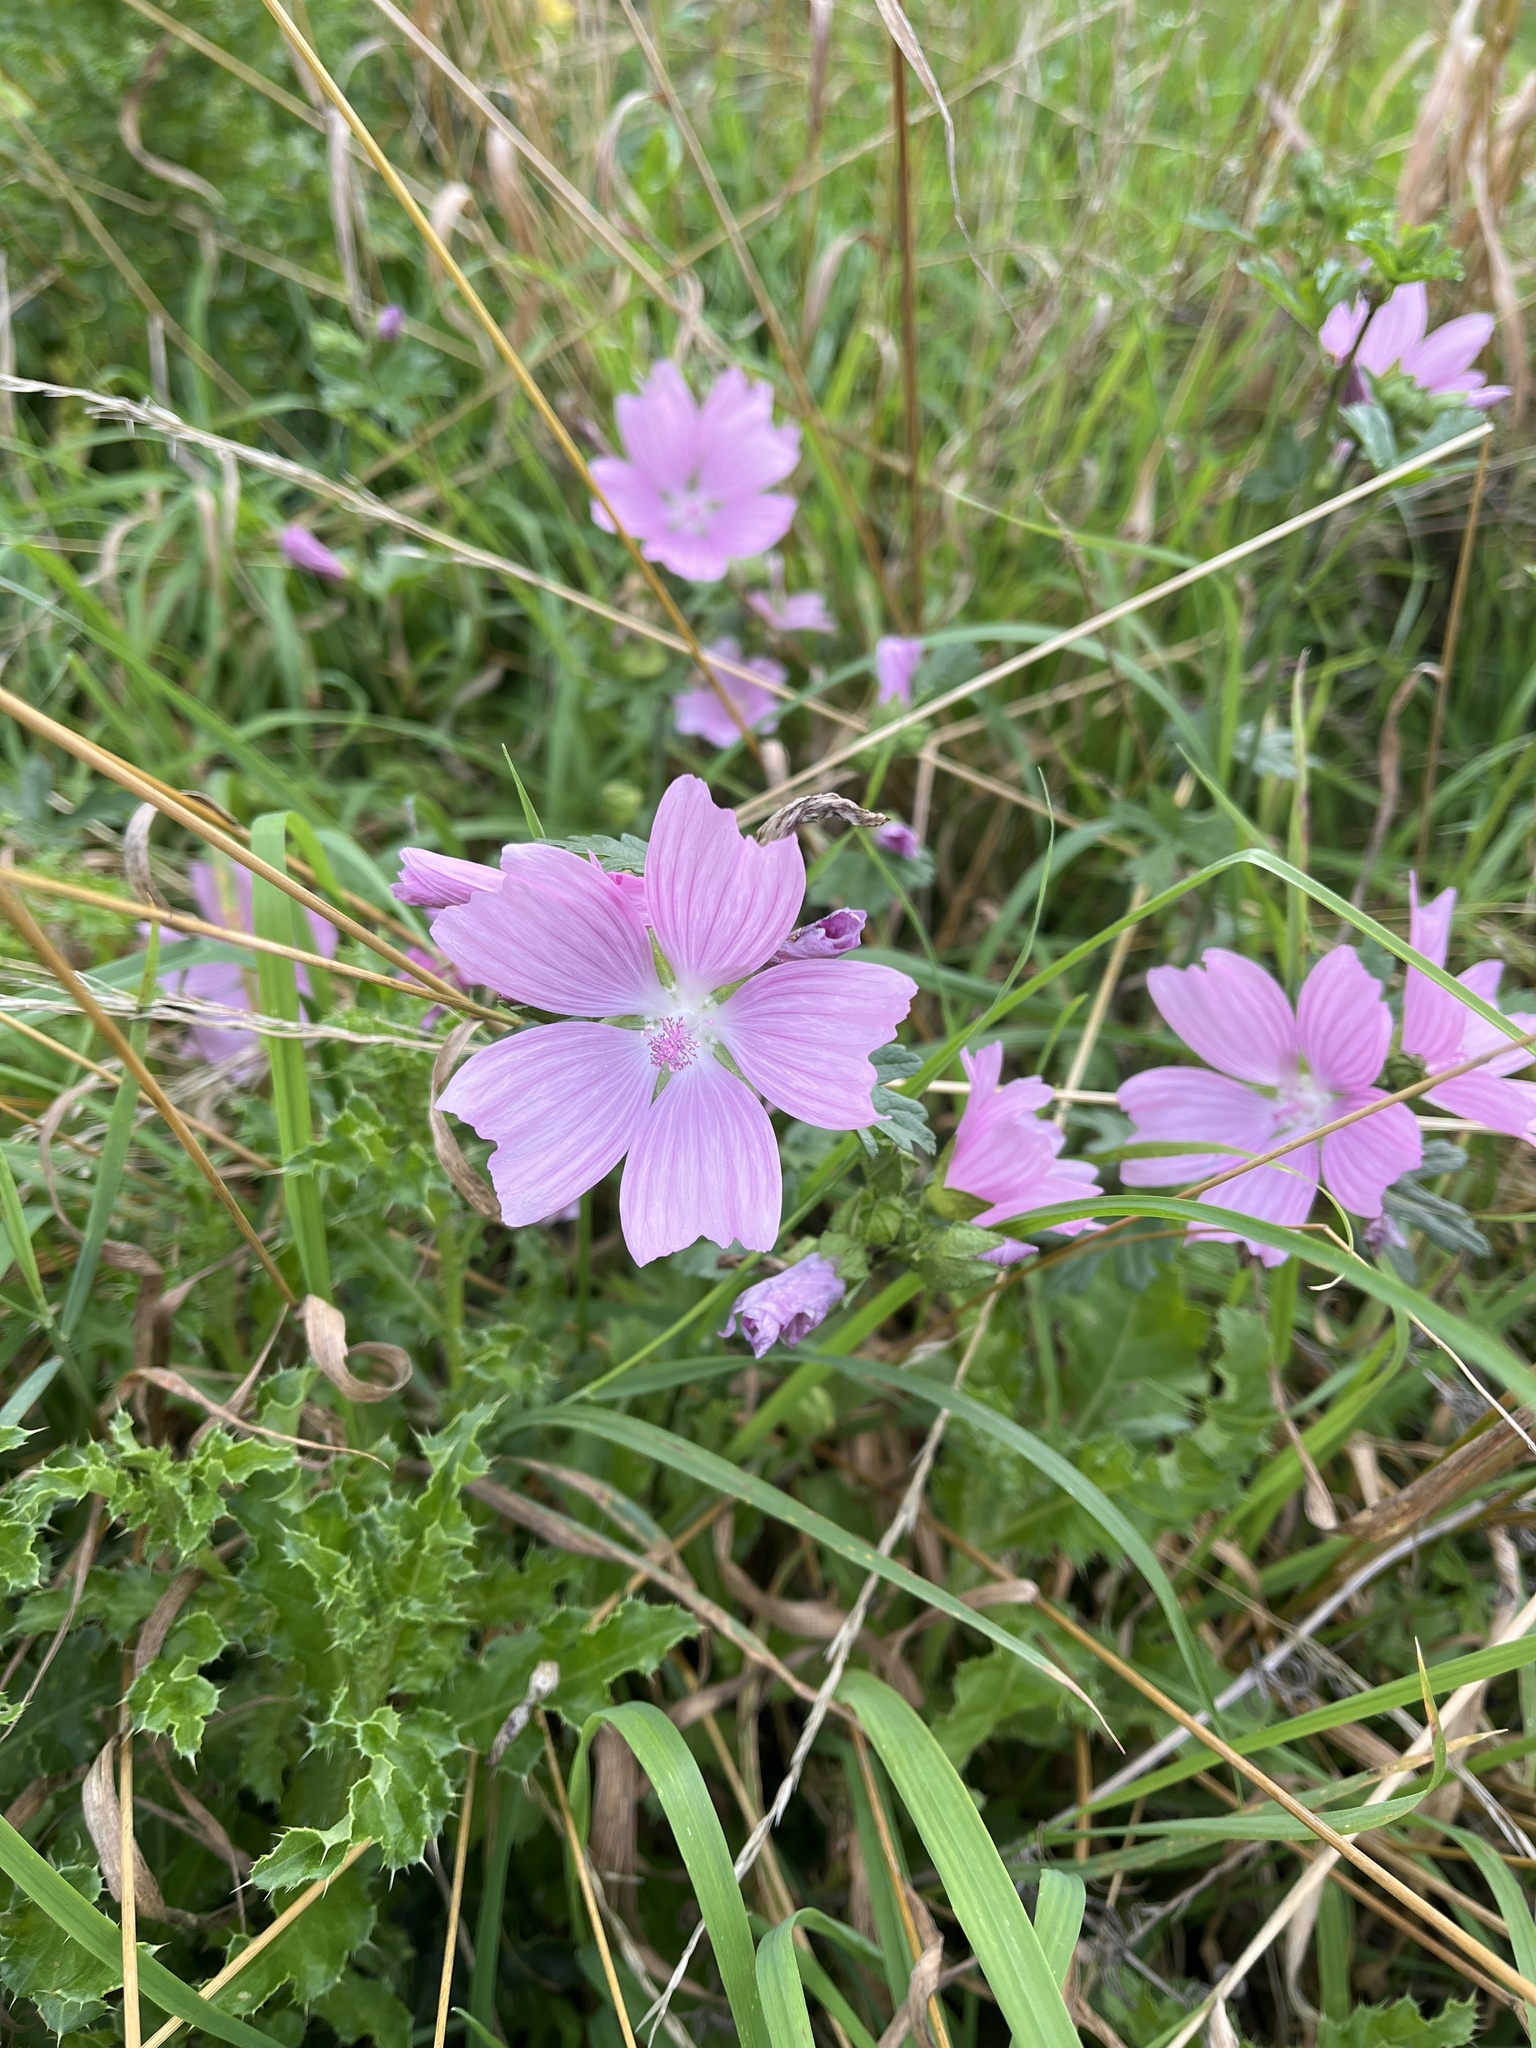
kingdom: Plantae
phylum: Tracheophyta
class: Magnoliopsida
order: Malvales
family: Malvaceae
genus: Malva
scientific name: Malva moschata
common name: Musk mallow
